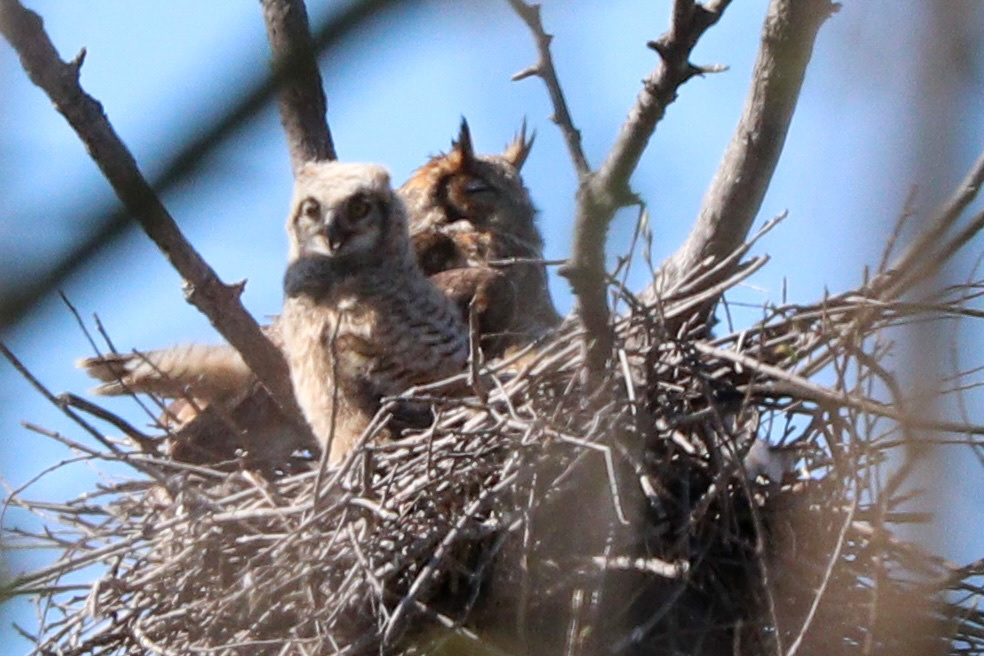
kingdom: Animalia
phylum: Chordata
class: Aves
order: Strigiformes
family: Strigidae
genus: Bubo
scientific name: Bubo virginianus
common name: Great horned owl
